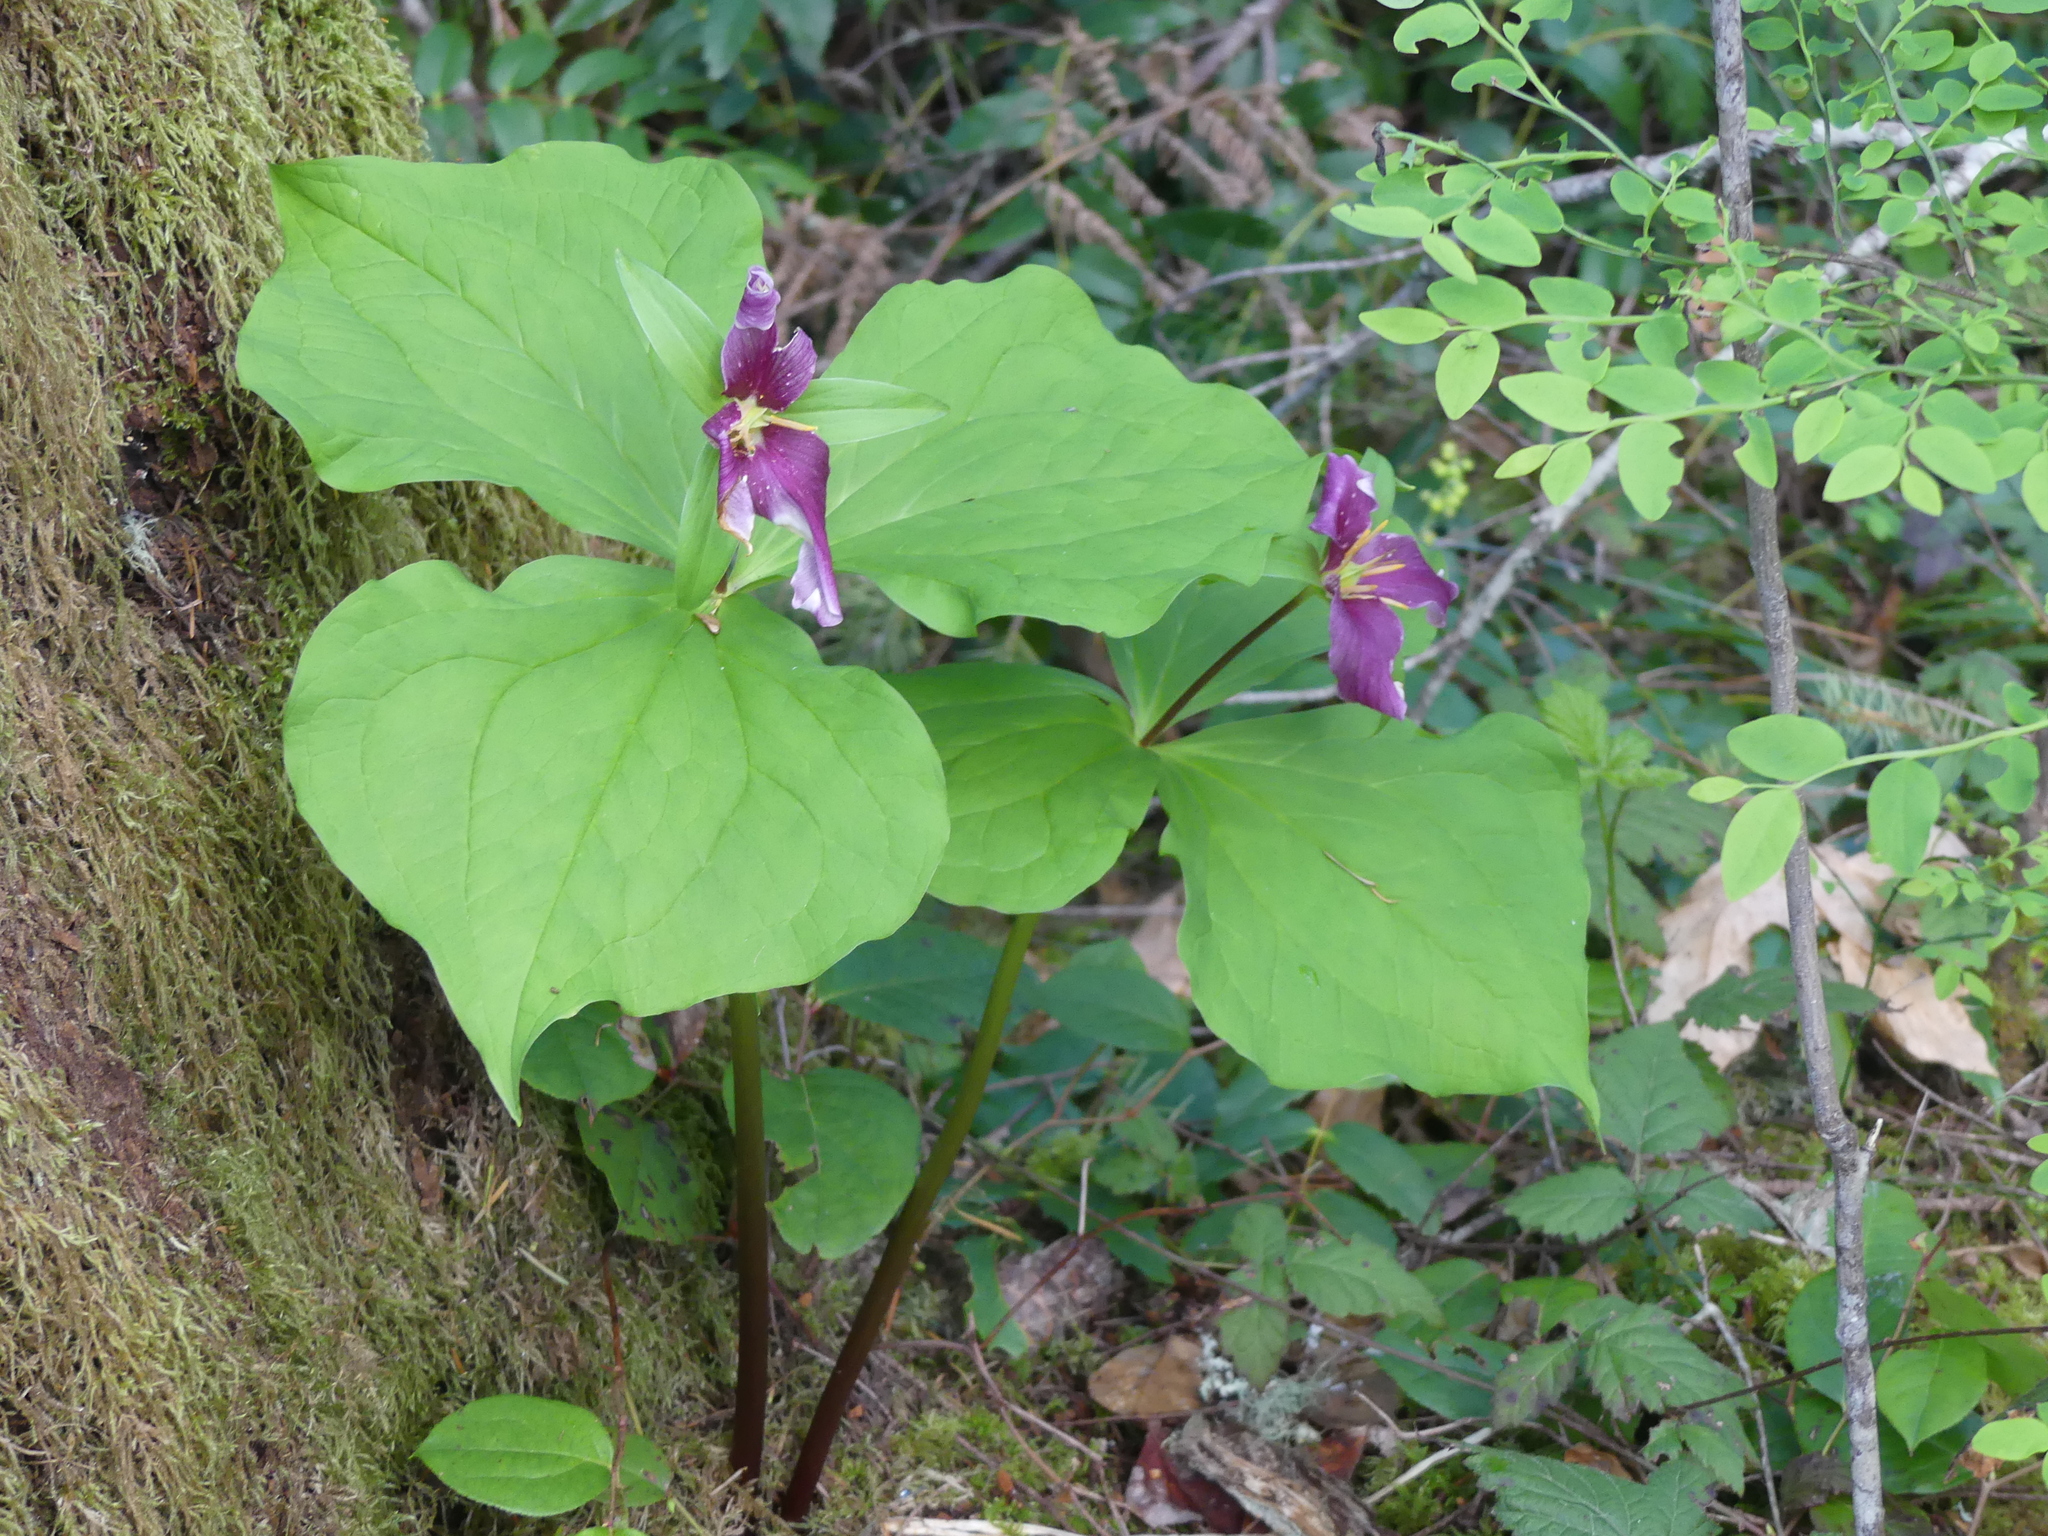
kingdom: Plantae
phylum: Tracheophyta
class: Liliopsida
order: Liliales
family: Melanthiaceae
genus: Trillium
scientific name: Trillium ovatum
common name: Pacific trillium
